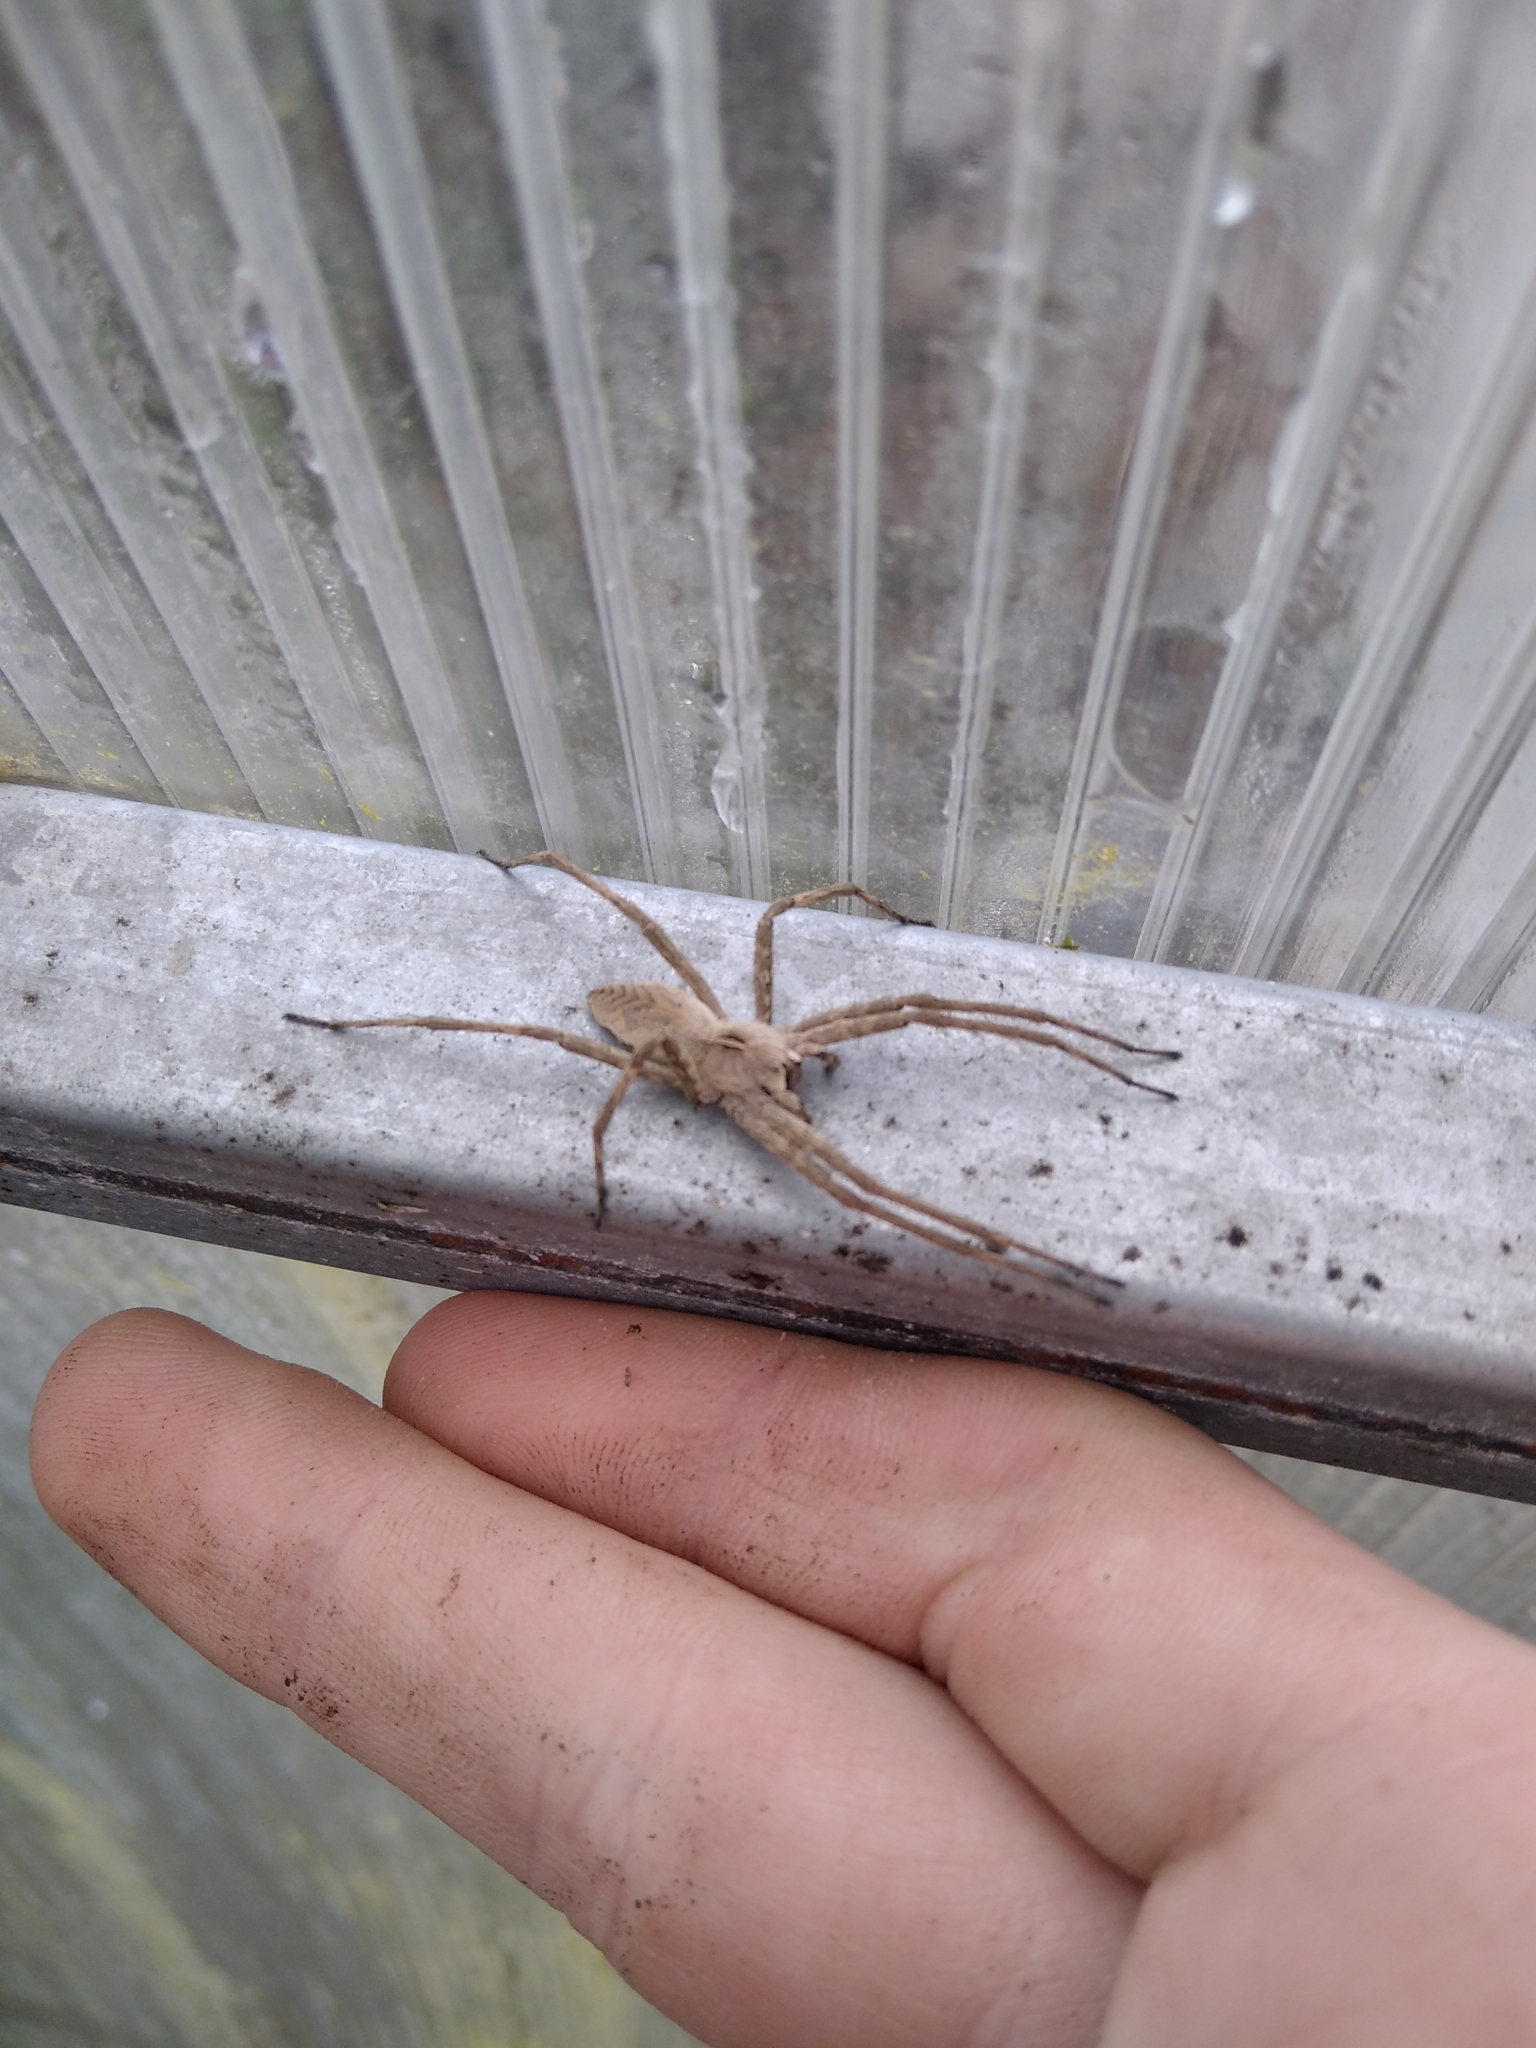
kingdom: Animalia
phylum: Arthropoda
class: Arachnida
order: Araneae
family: Pisauridae
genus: Pisaura
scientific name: Pisaura mirabilis
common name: Tent spider
